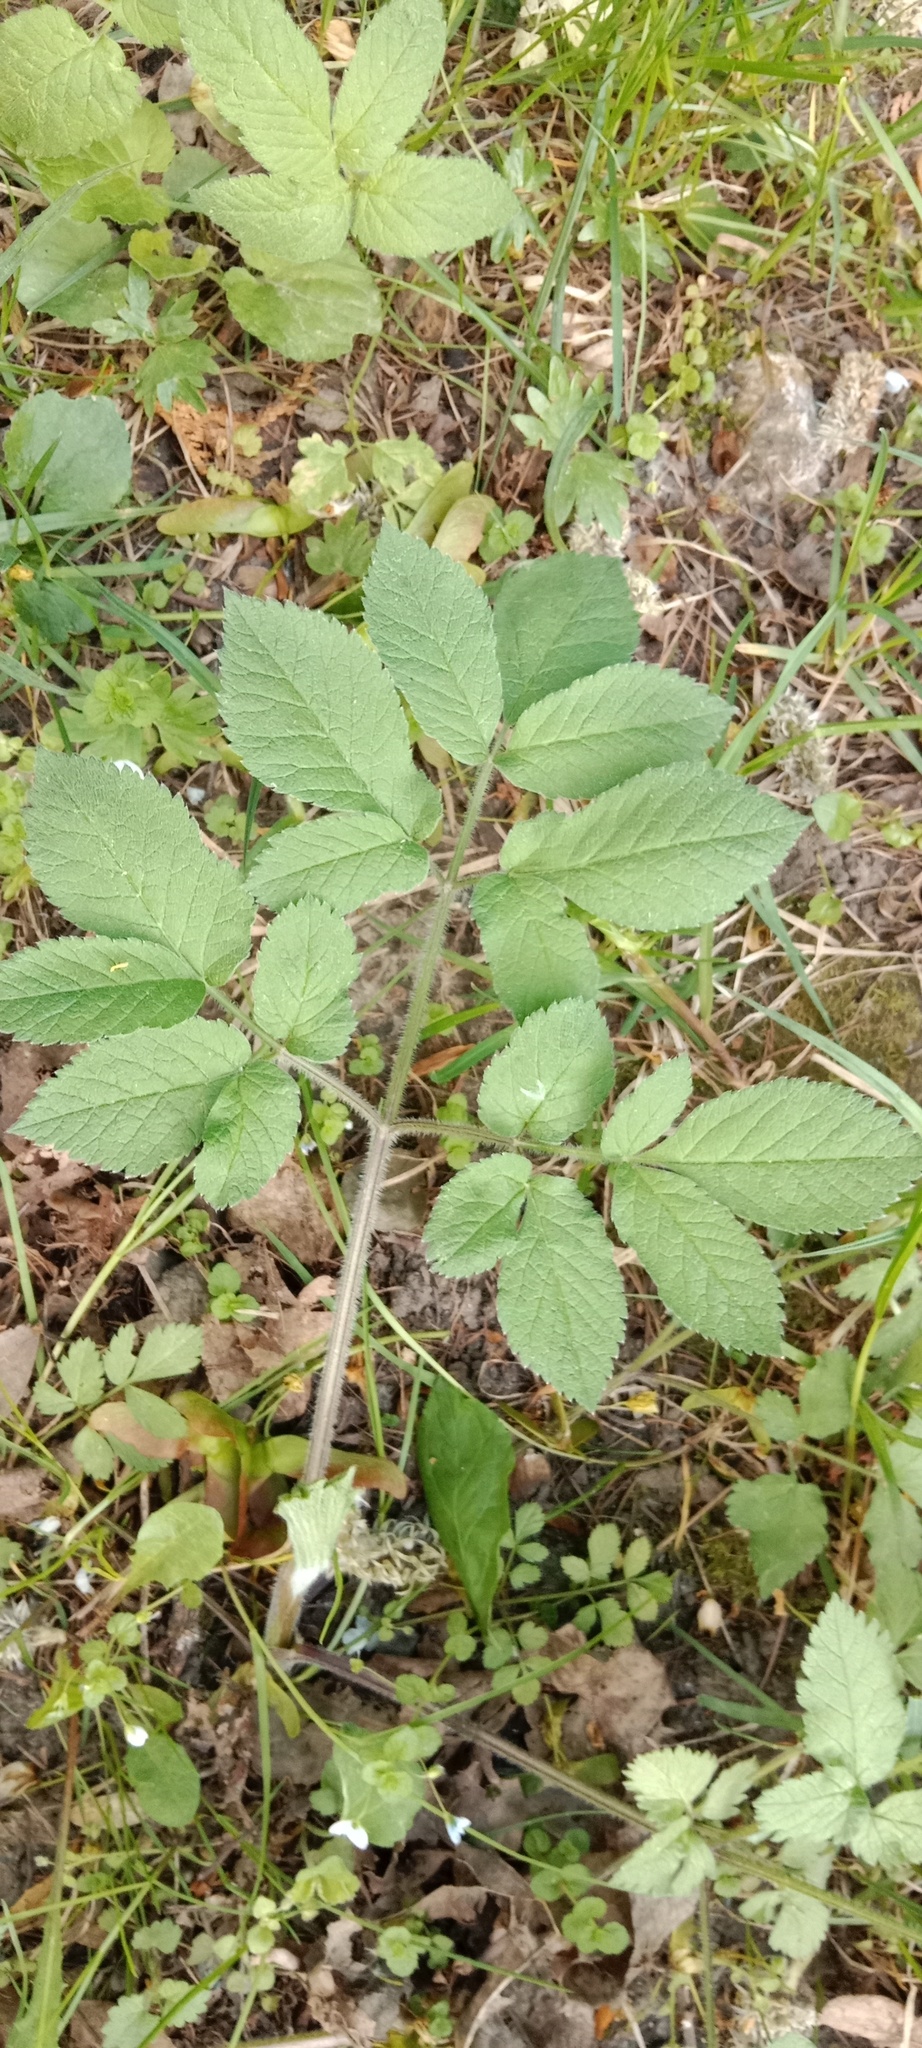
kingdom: Plantae
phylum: Tracheophyta
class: Magnoliopsida
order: Apiales
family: Apiaceae
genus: Chaerophyllum
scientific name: Chaerophyllum aromaticum
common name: Broadleaf chervil
